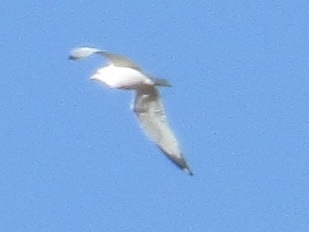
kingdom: Animalia
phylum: Chordata
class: Aves
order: Charadriiformes
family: Laridae
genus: Larus
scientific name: Larus delawarensis
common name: Ring-billed gull
